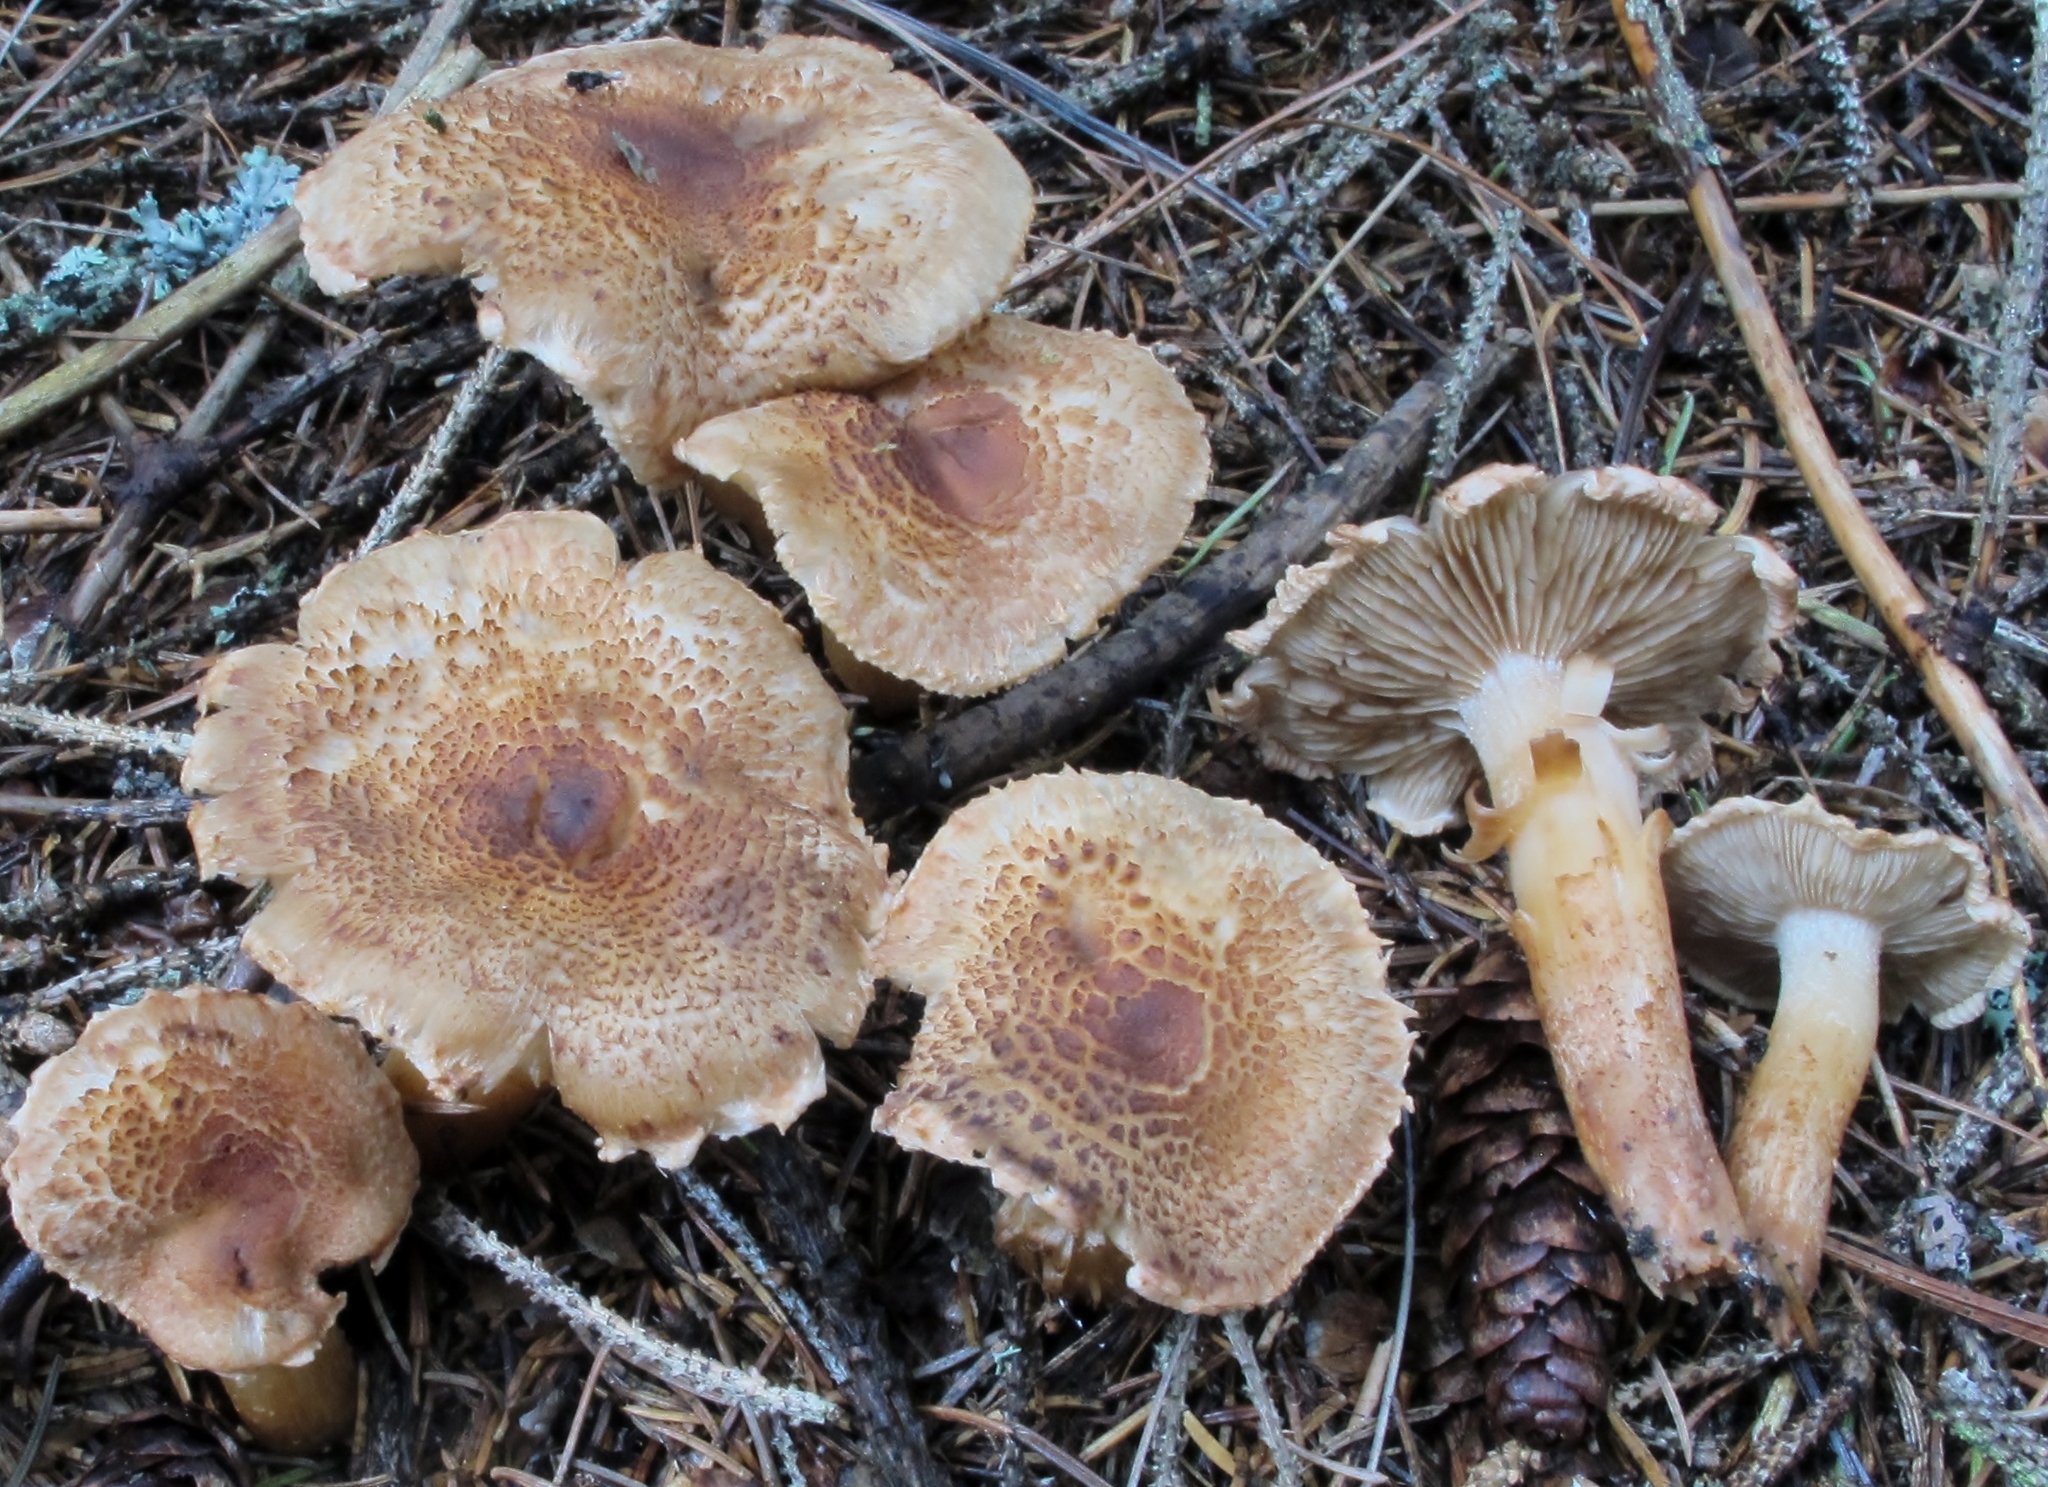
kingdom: Fungi
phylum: Basidiomycota
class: Agaricomycetes
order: Agaricales
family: Tricholomataceae
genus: Tricholoma
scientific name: Tricholoma vaccinum
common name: Scaly knight
